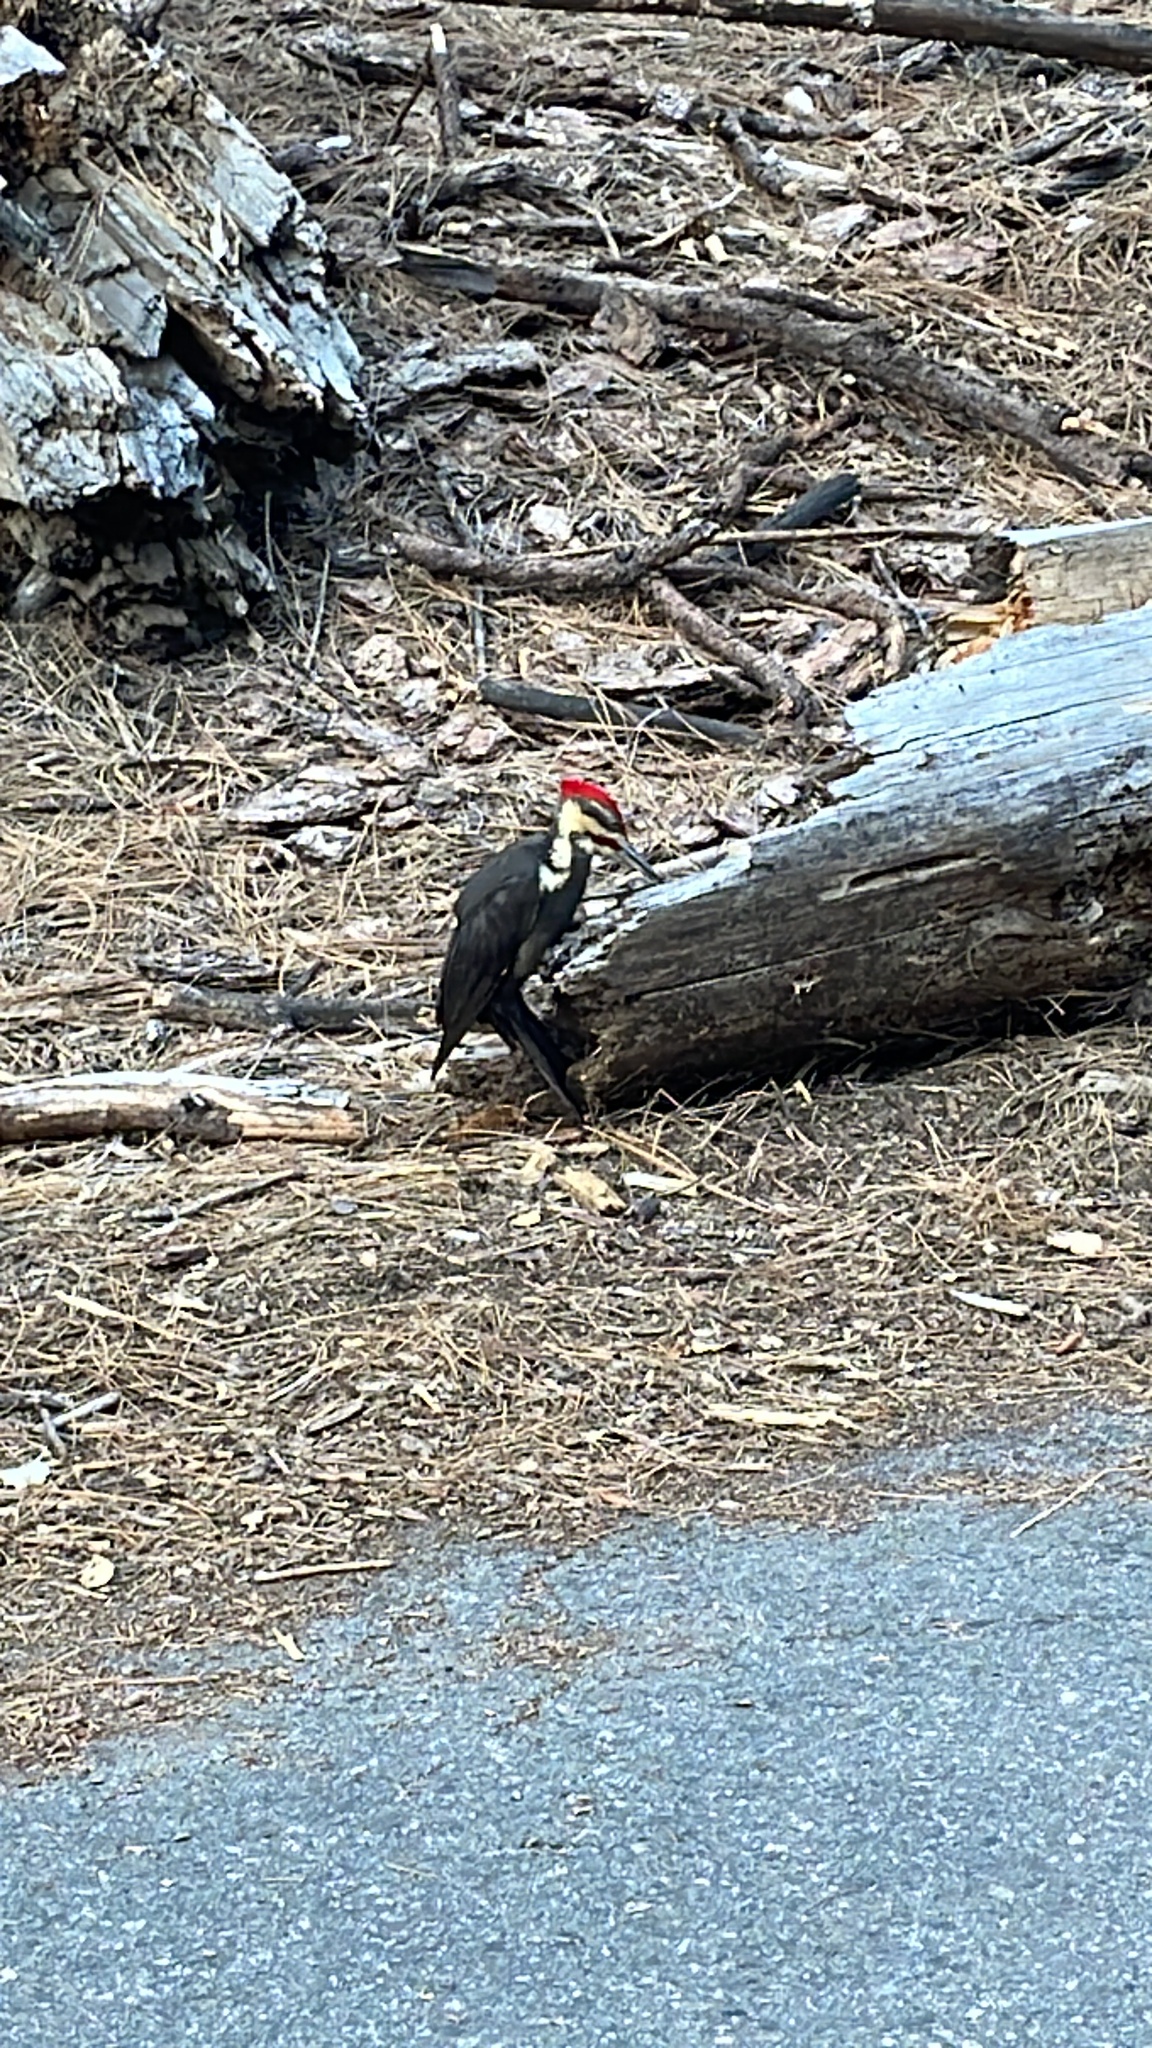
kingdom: Animalia
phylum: Chordata
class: Aves
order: Piciformes
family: Picidae
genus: Dryocopus
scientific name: Dryocopus pileatus
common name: Pileated woodpecker
